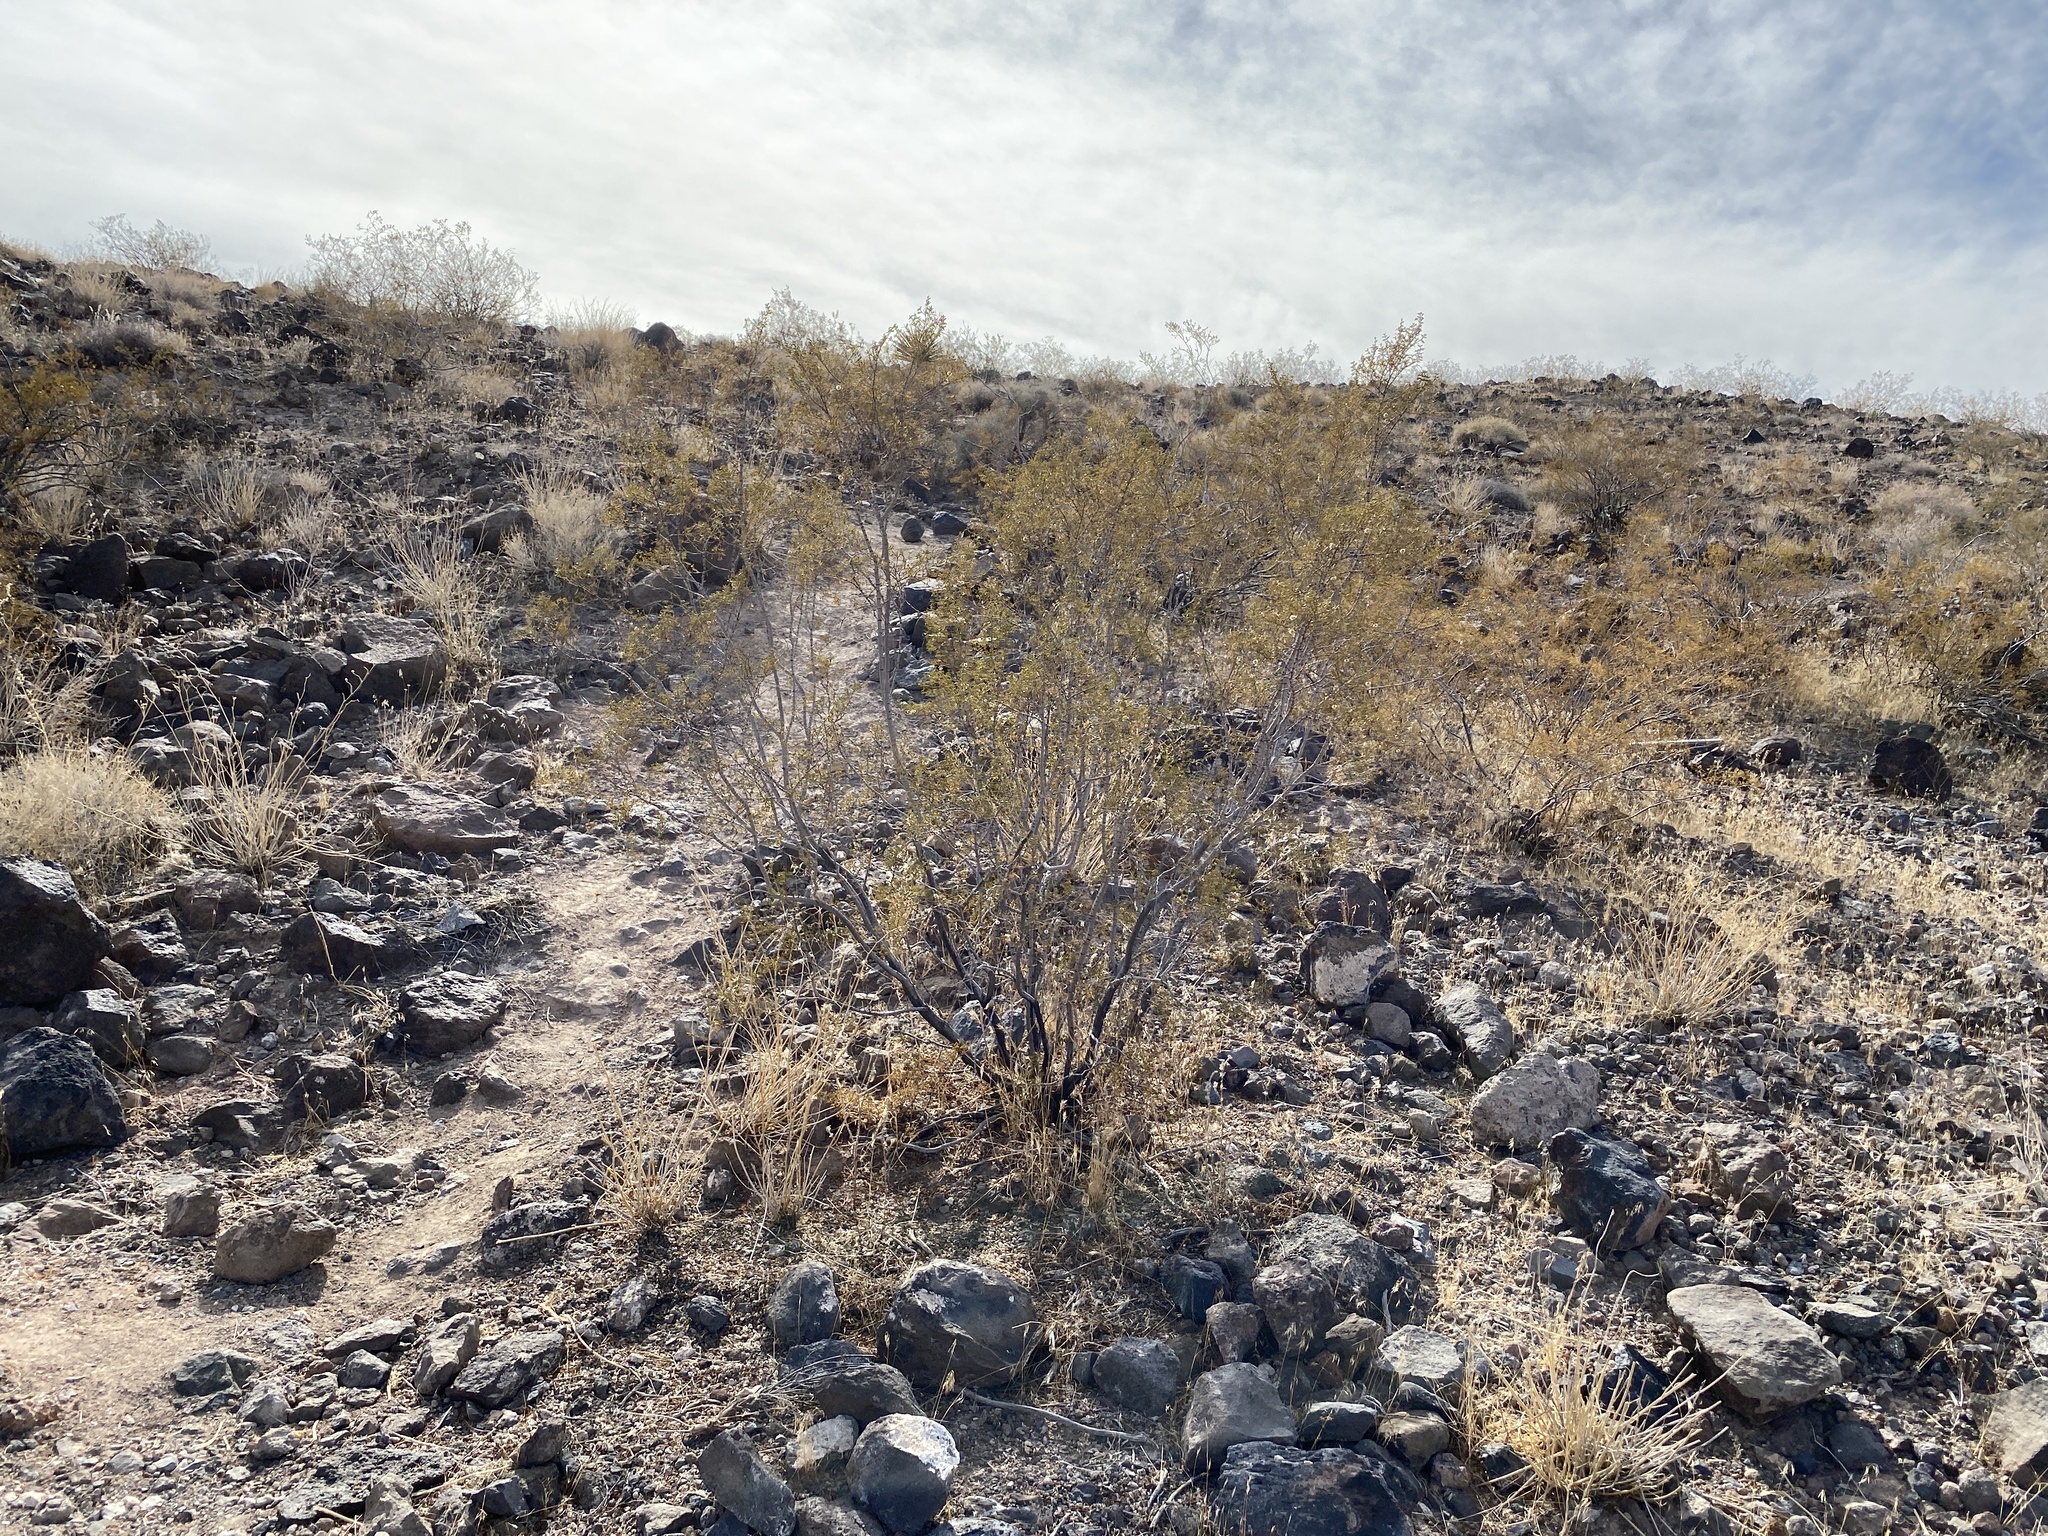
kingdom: Plantae
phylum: Tracheophyta
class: Magnoliopsida
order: Zygophyllales
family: Zygophyllaceae
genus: Larrea
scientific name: Larrea tridentata
